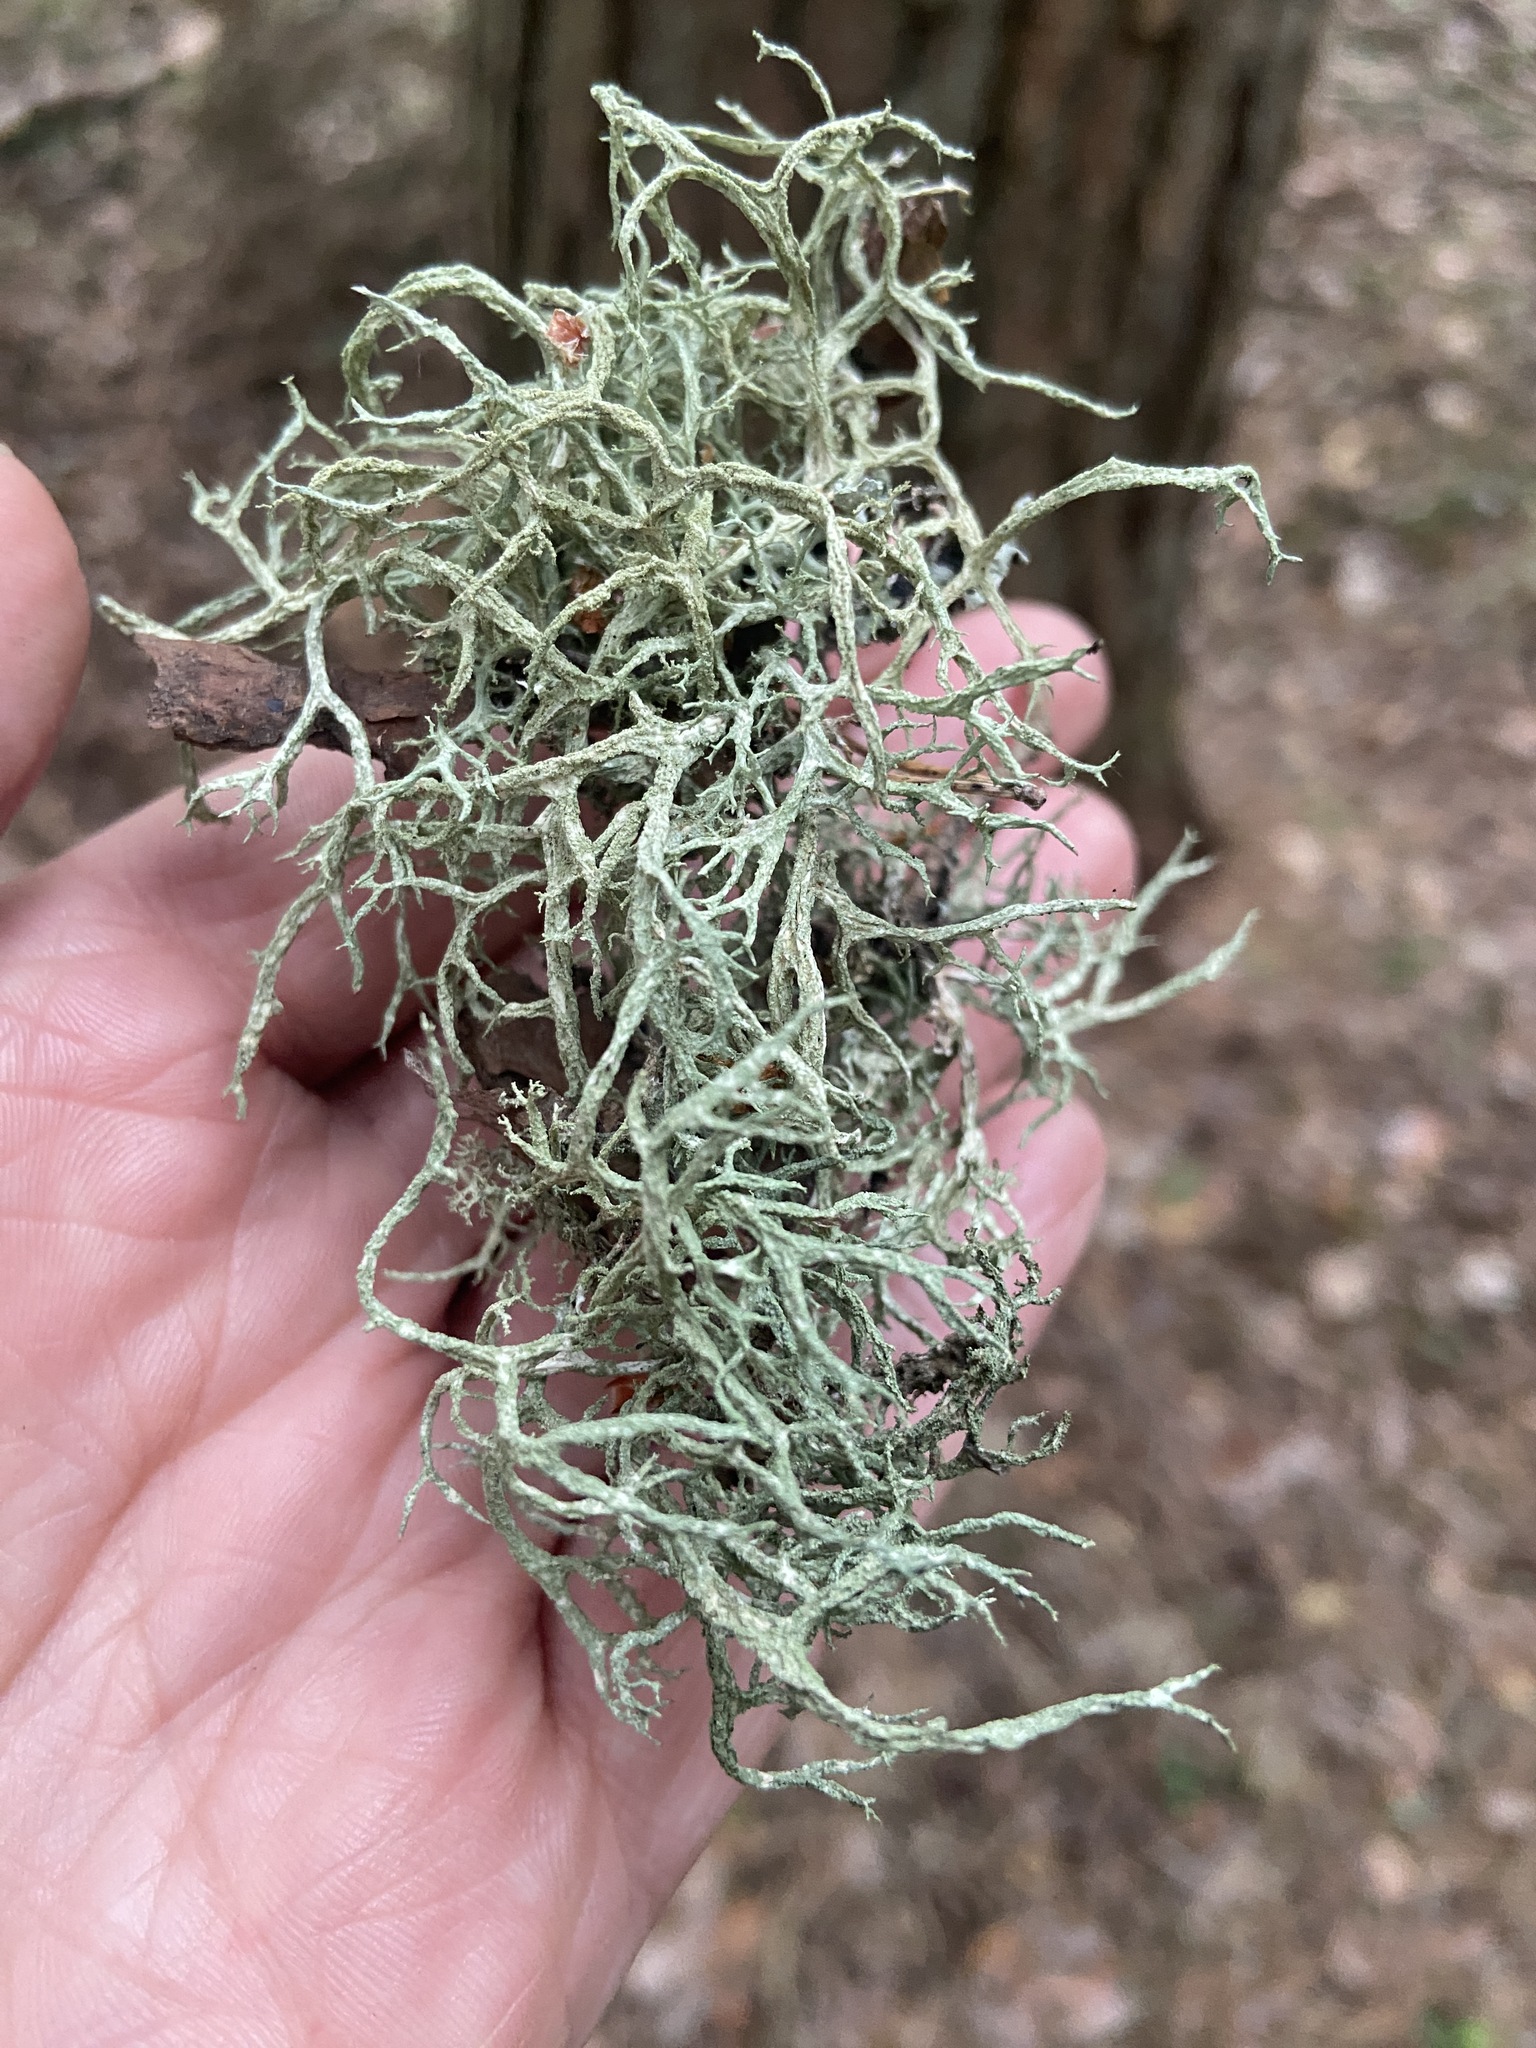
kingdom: Fungi
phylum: Ascomycota
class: Lecanoromycetes
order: Lecanorales
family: Parmeliaceae
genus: Evernia
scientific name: Evernia mesomorpha
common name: Boreal oak moss lichen
